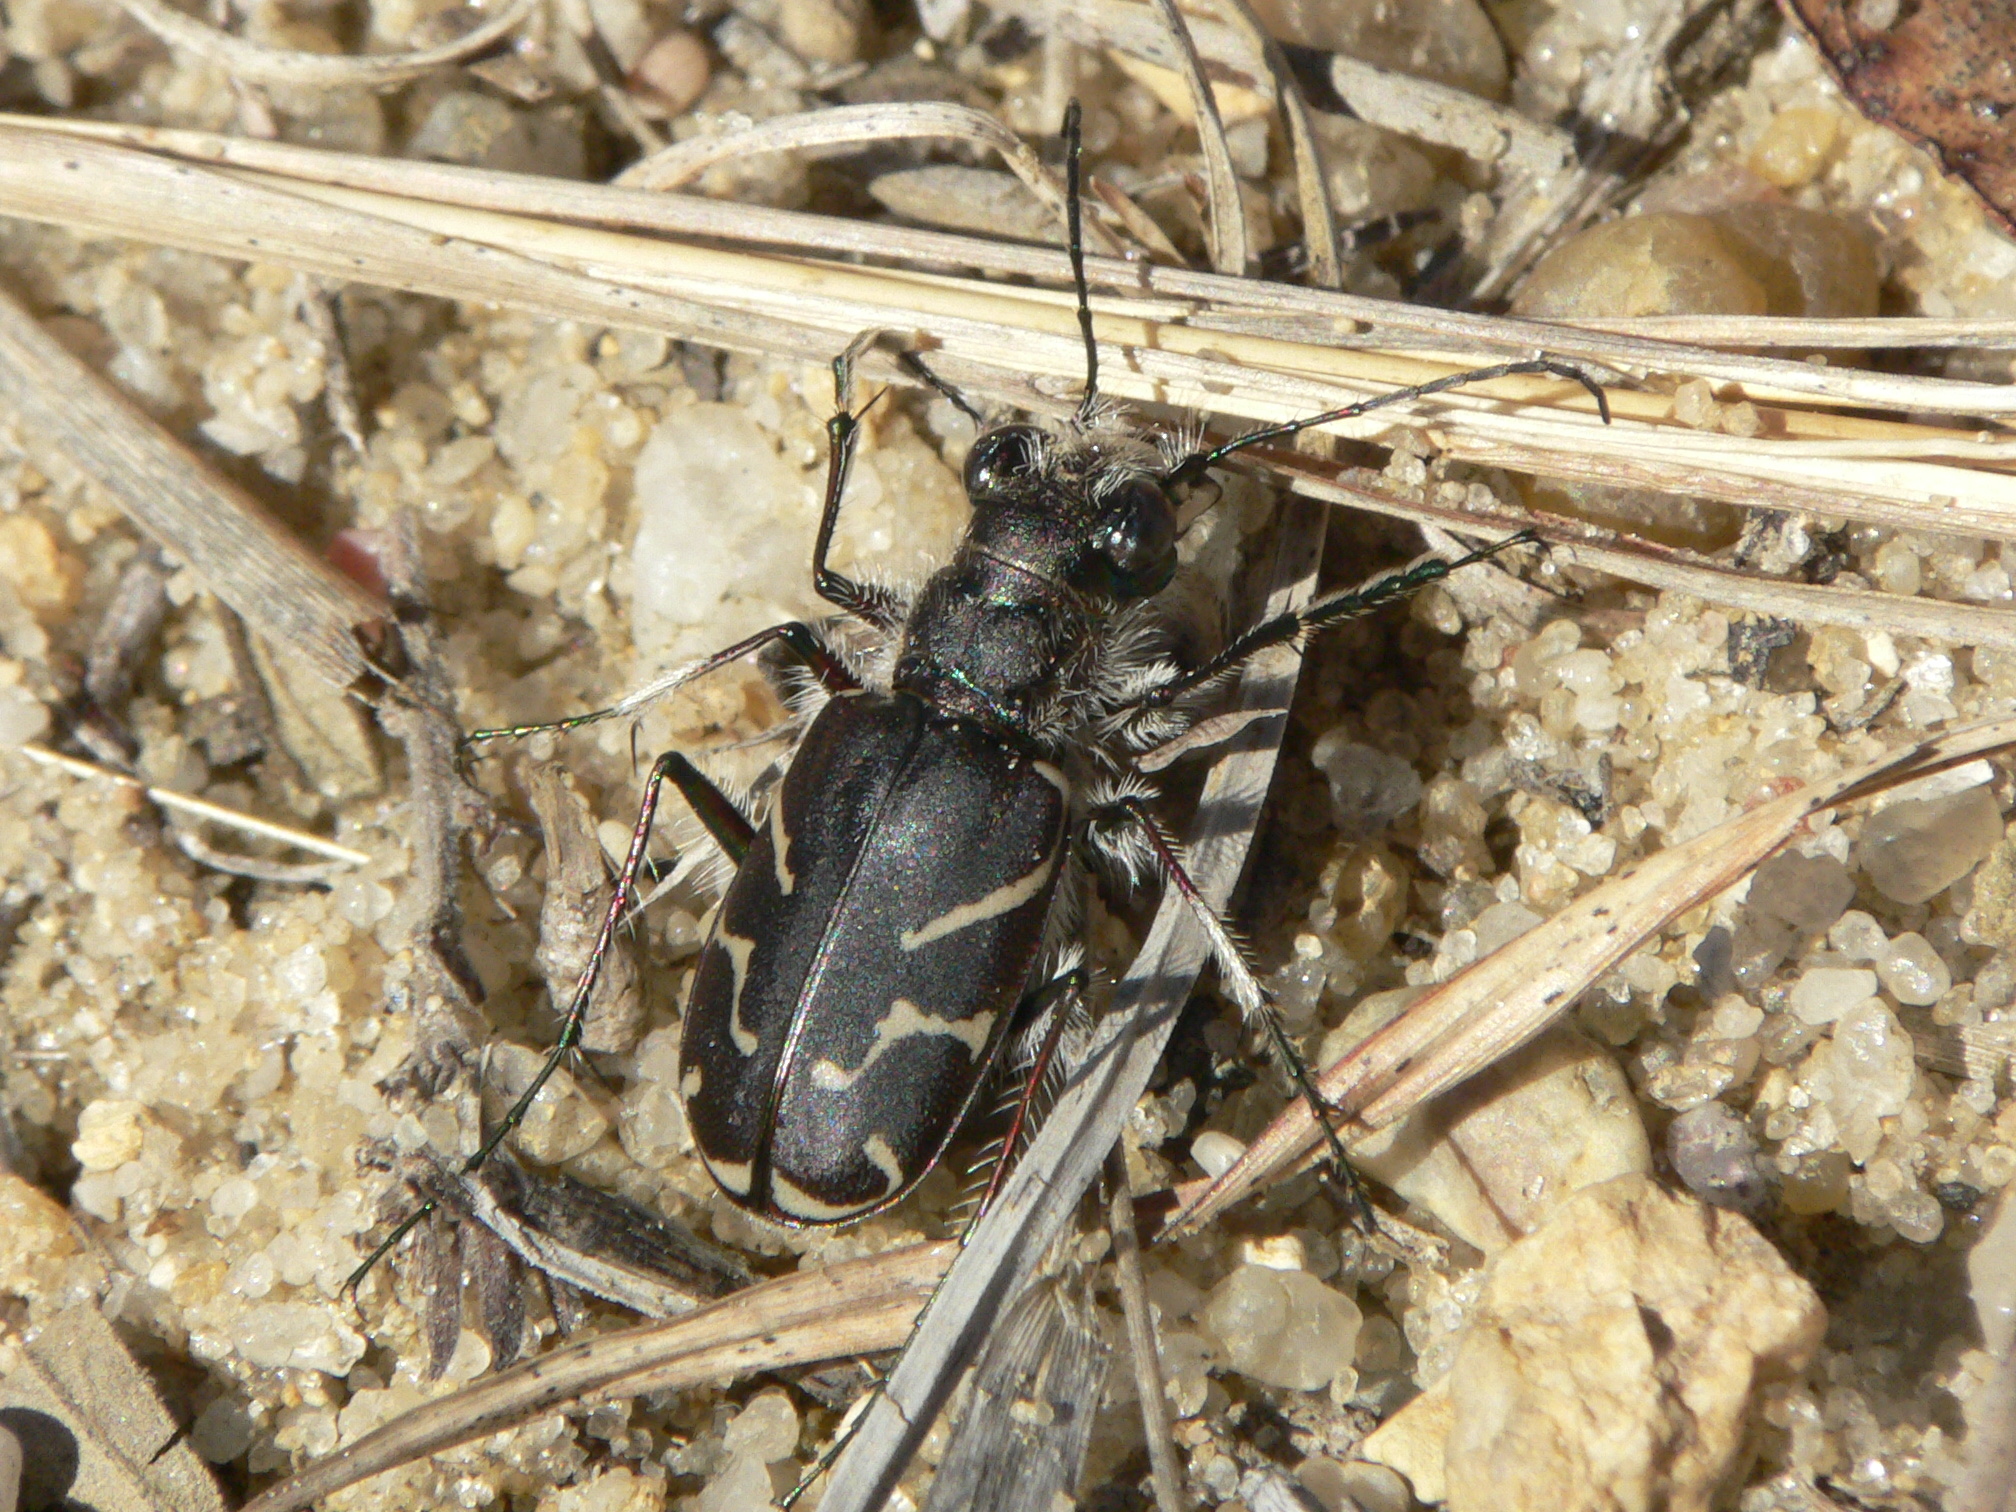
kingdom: Animalia
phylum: Arthropoda
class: Insecta
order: Coleoptera
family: Carabidae
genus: Cicindela
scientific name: Cicindela tranquebarica
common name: Oblique-lined tiger beetle
